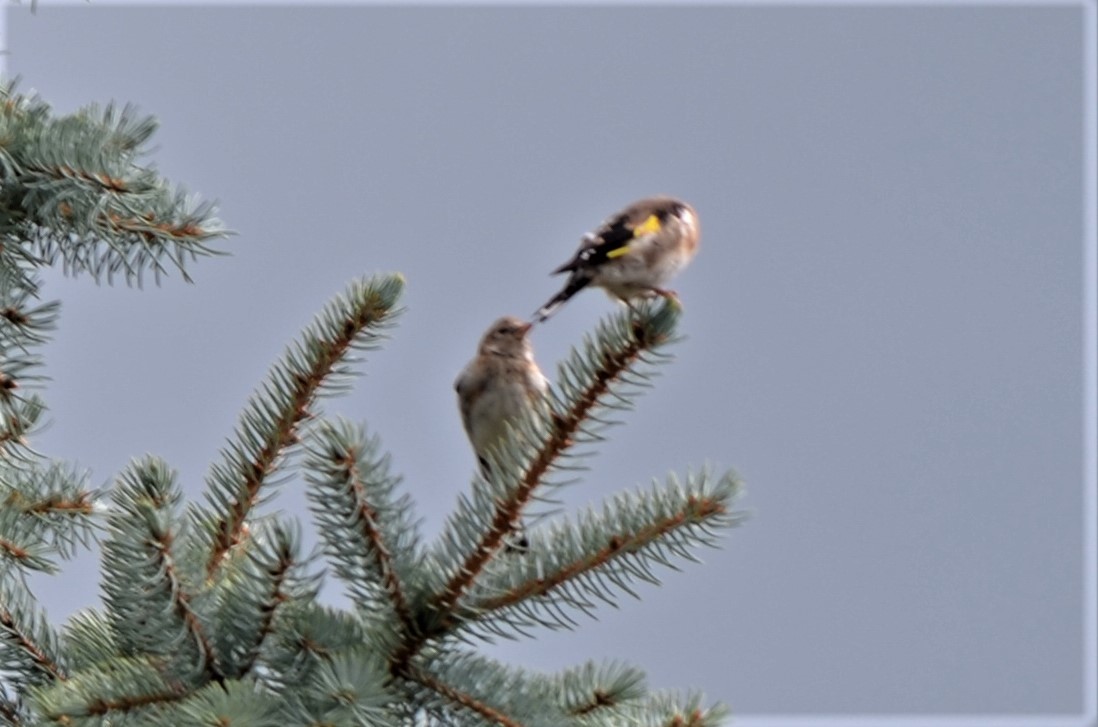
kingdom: Animalia
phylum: Chordata
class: Aves
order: Passeriformes
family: Fringillidae
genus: Carduelis
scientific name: Carduelis carduelis
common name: European goldfinch
